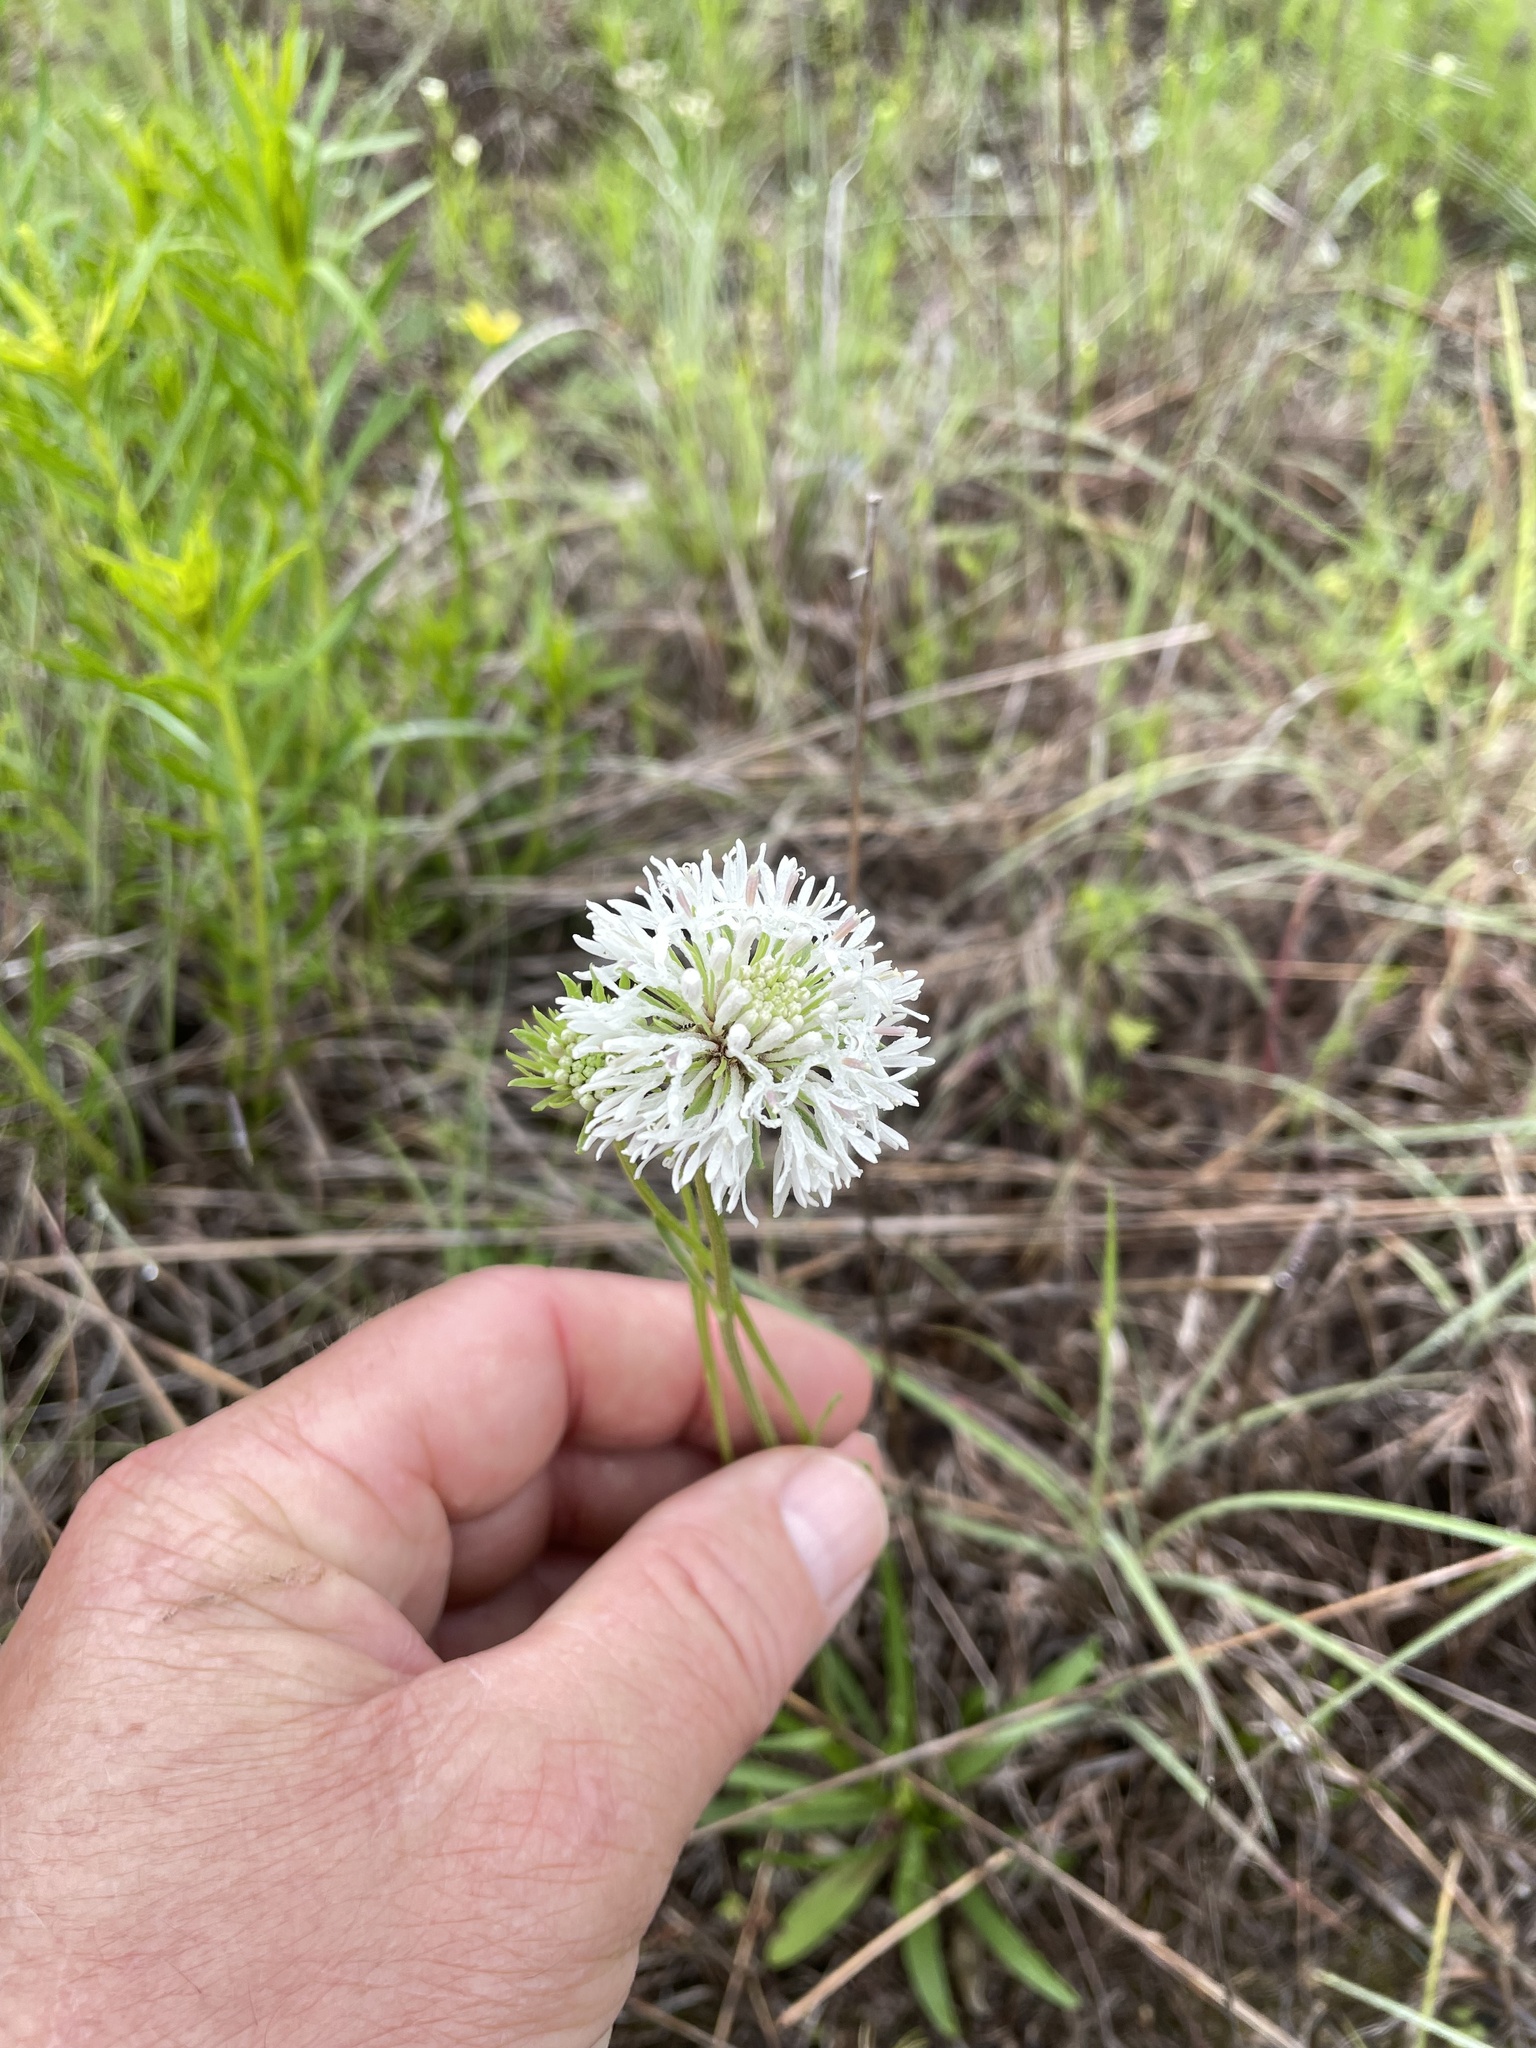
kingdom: Plantae
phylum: Tracheophyta
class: Magnoliopsida
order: Asterales
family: Asteraceae
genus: Marshallia
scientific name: Marshallia caespitosa
